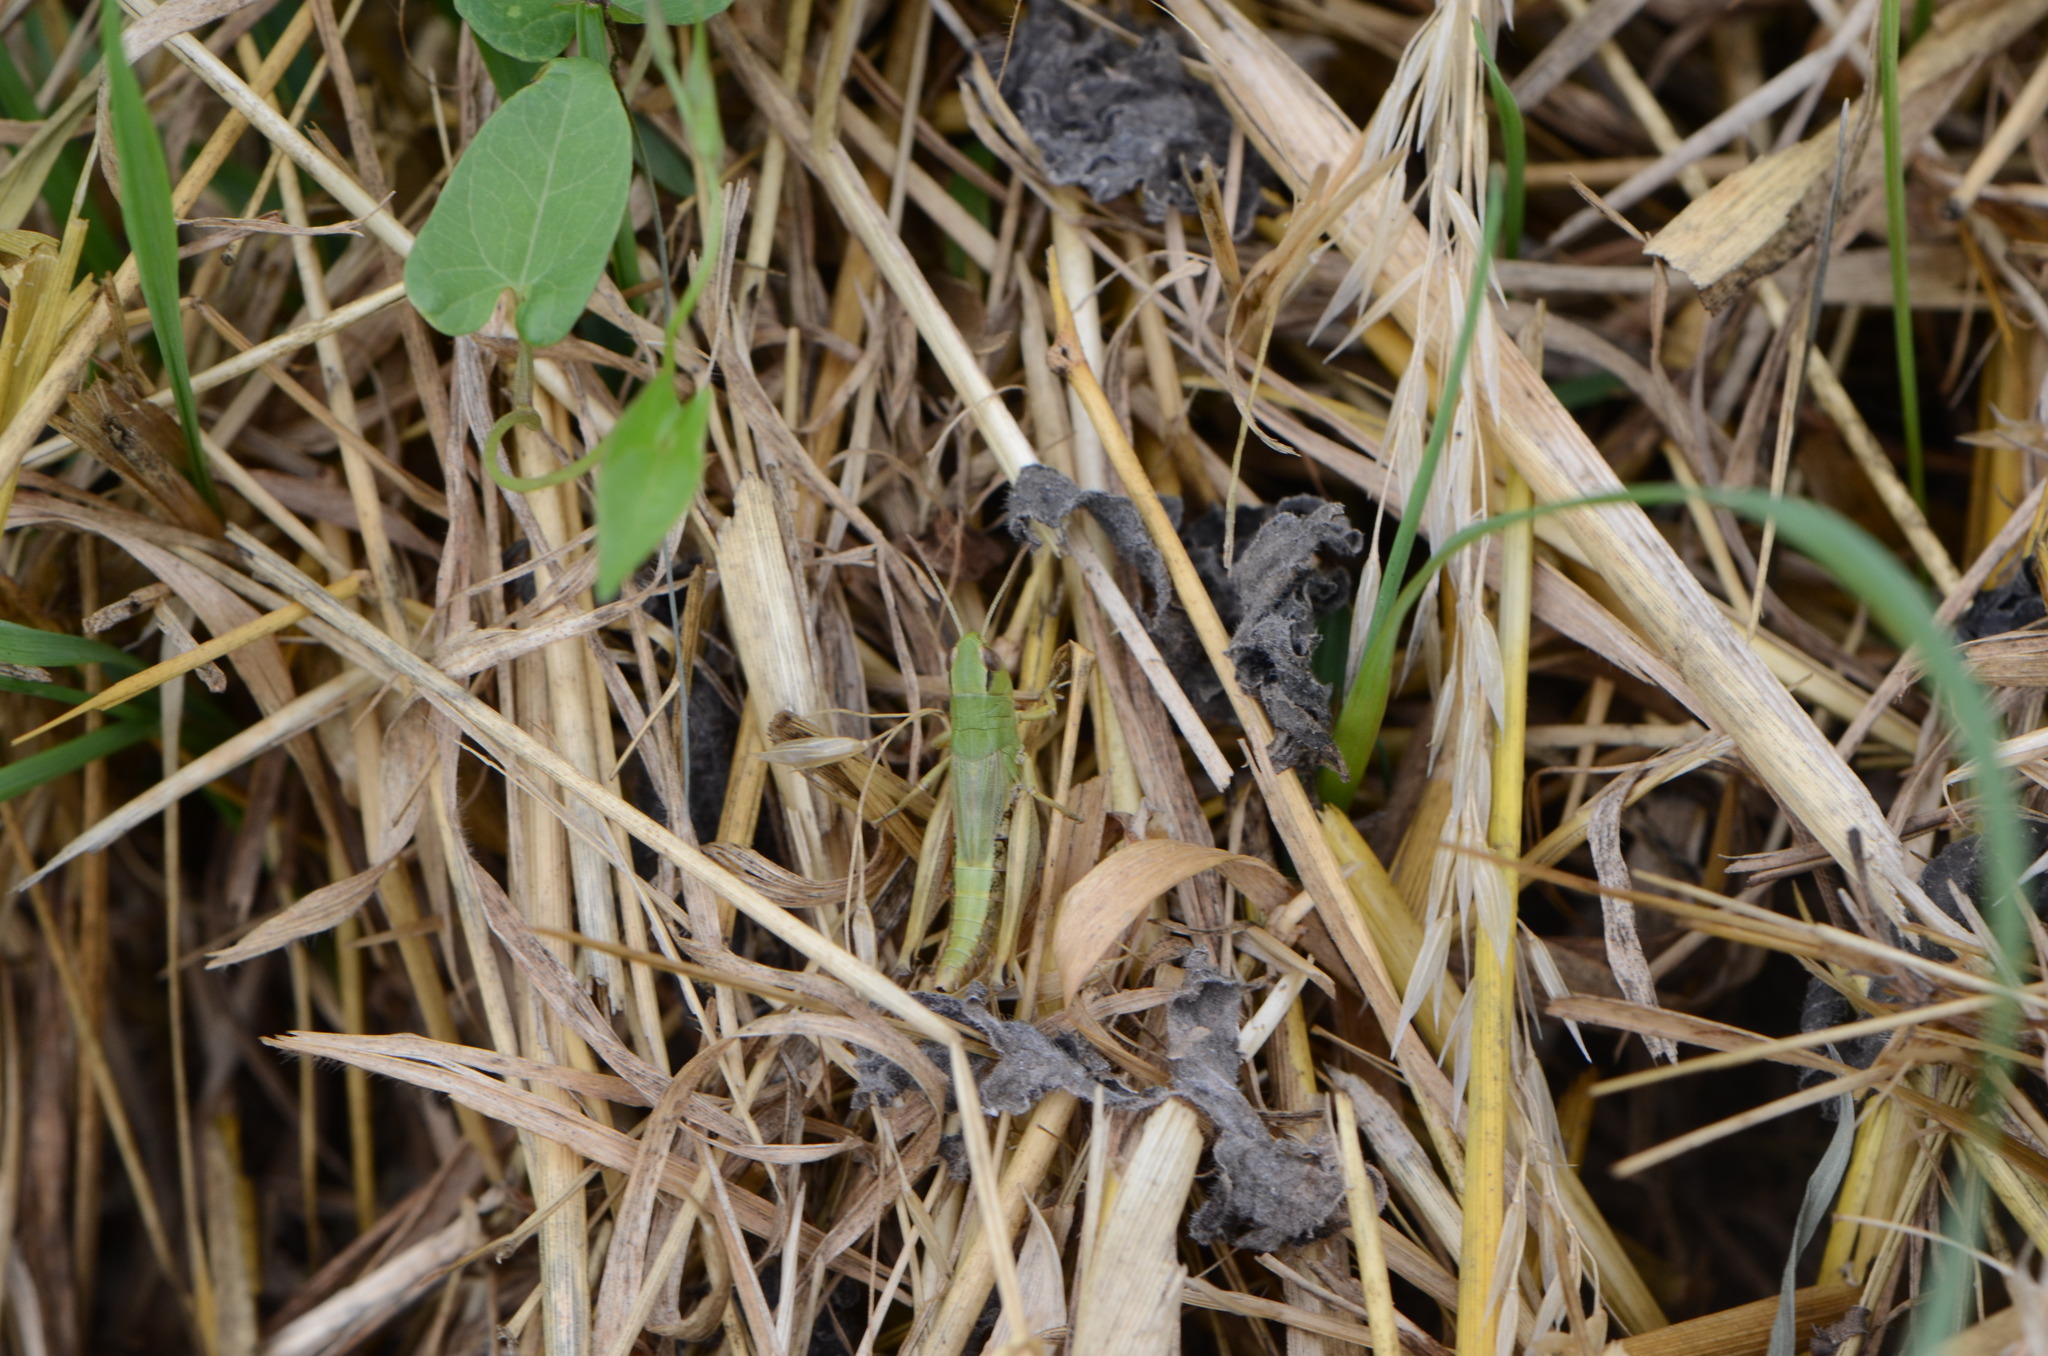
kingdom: Animalia
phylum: Arthropoda
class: Insecta
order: Orthoptera
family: Acrididae
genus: Pseudochorthippus
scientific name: Pseudochorthippus parallelus
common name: Meadow grasshopper
